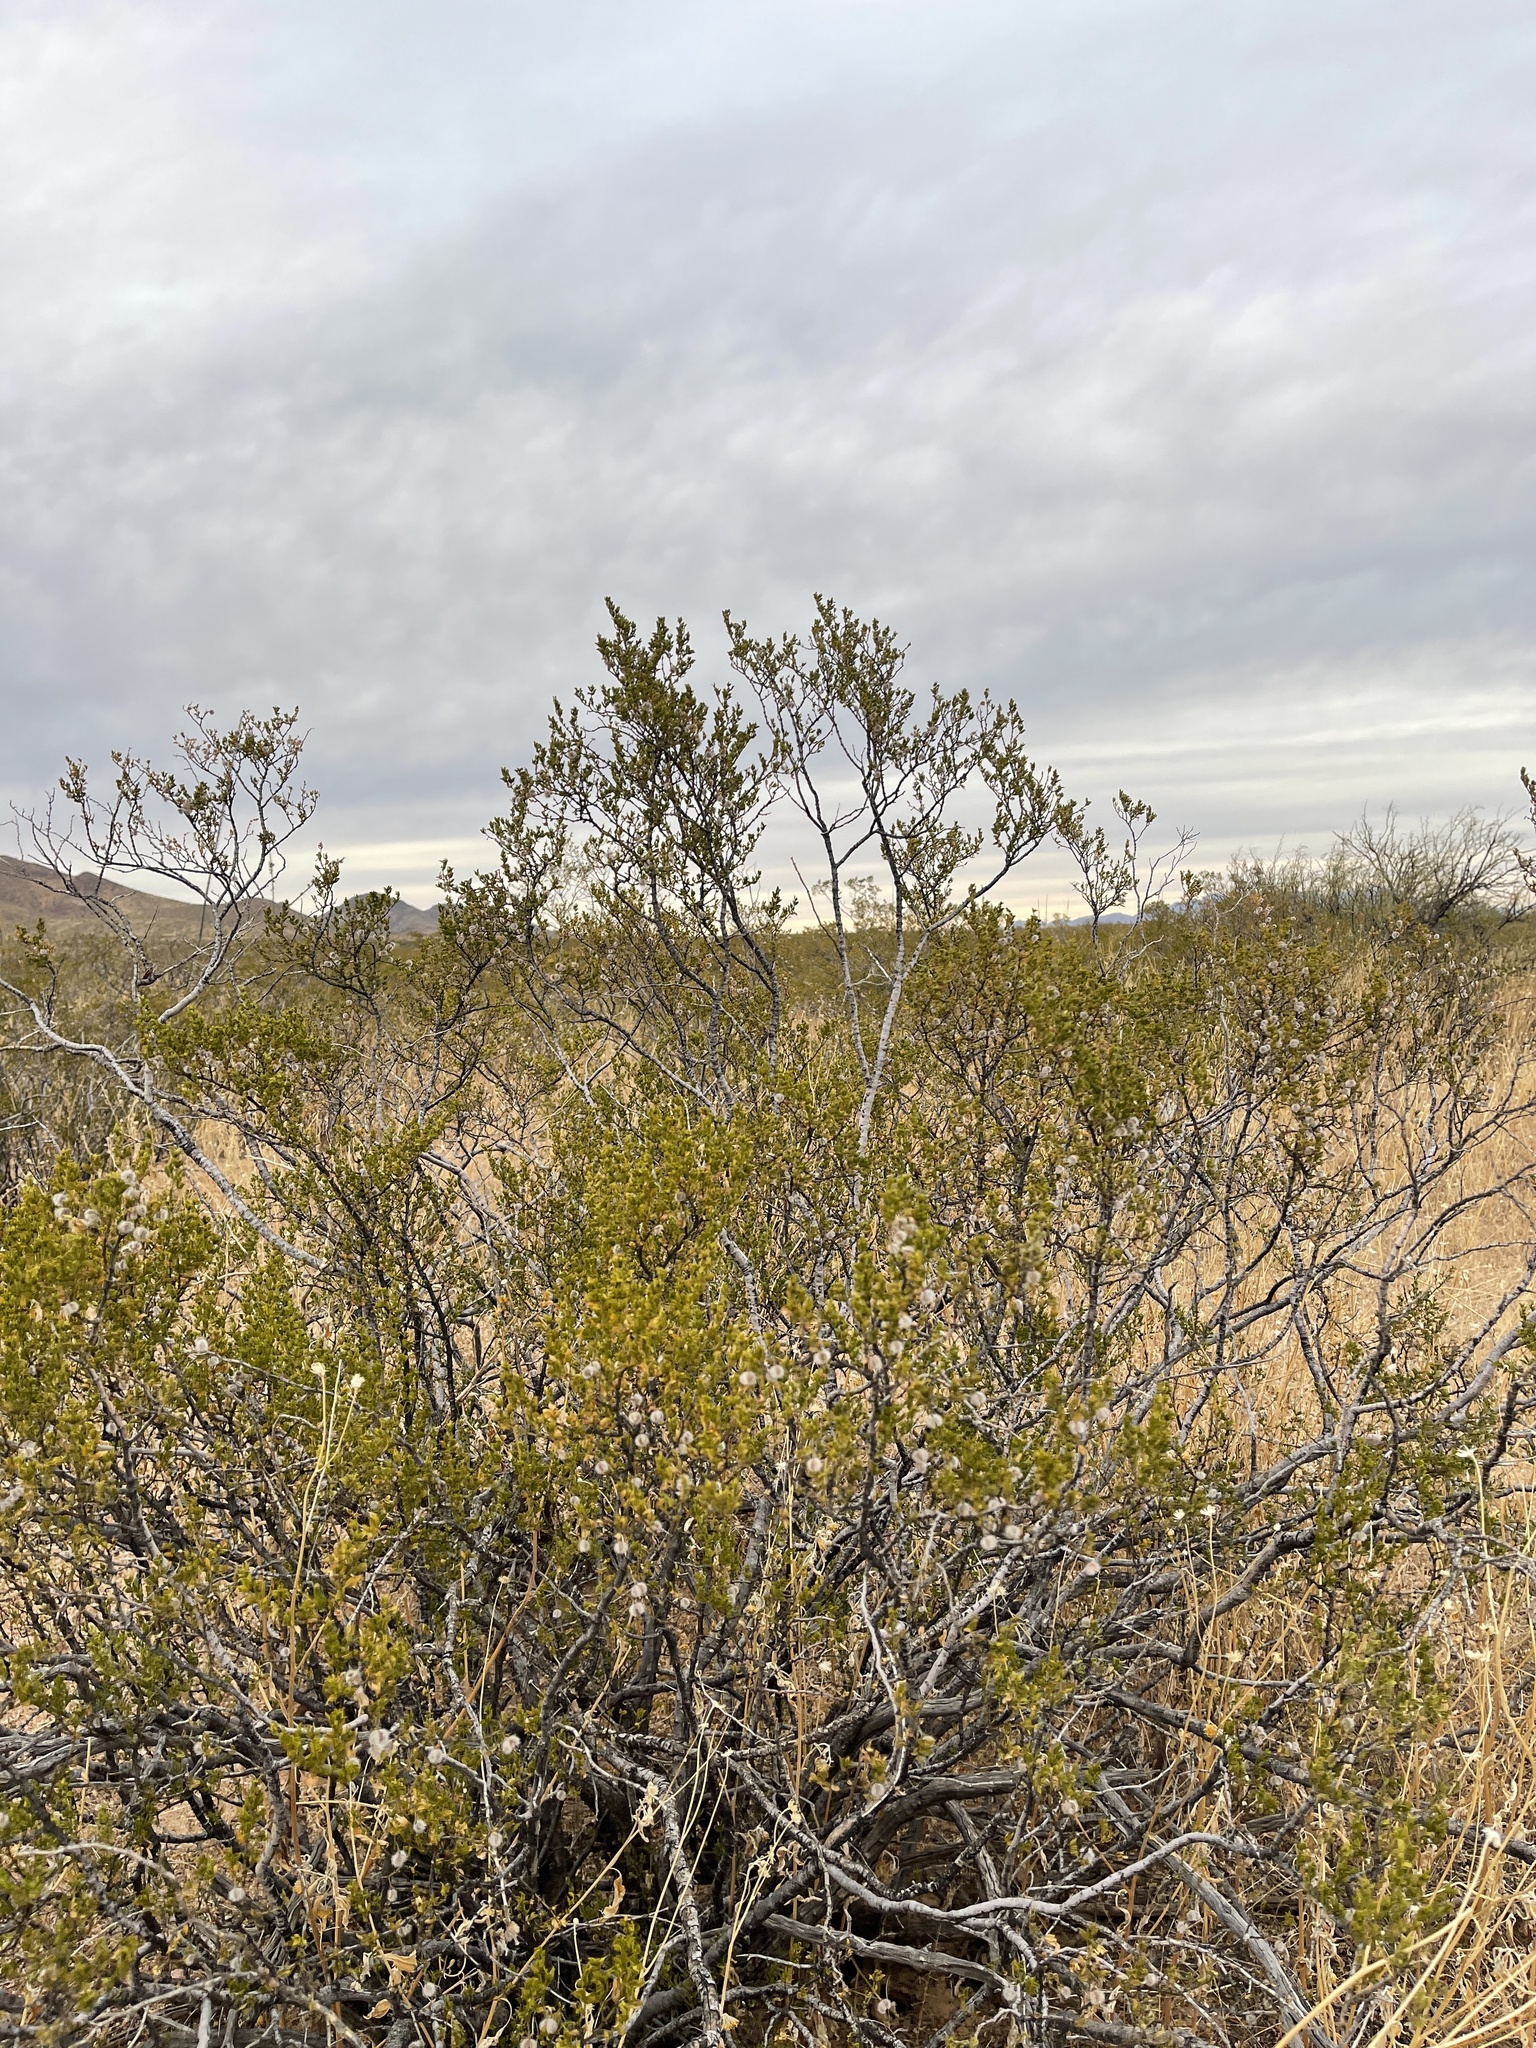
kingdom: Plantae
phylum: Tracheophyta
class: Magnoliopsida
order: Zygophyllales
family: Zygophyllaceae
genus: Larrea
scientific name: Larrea tridentata
